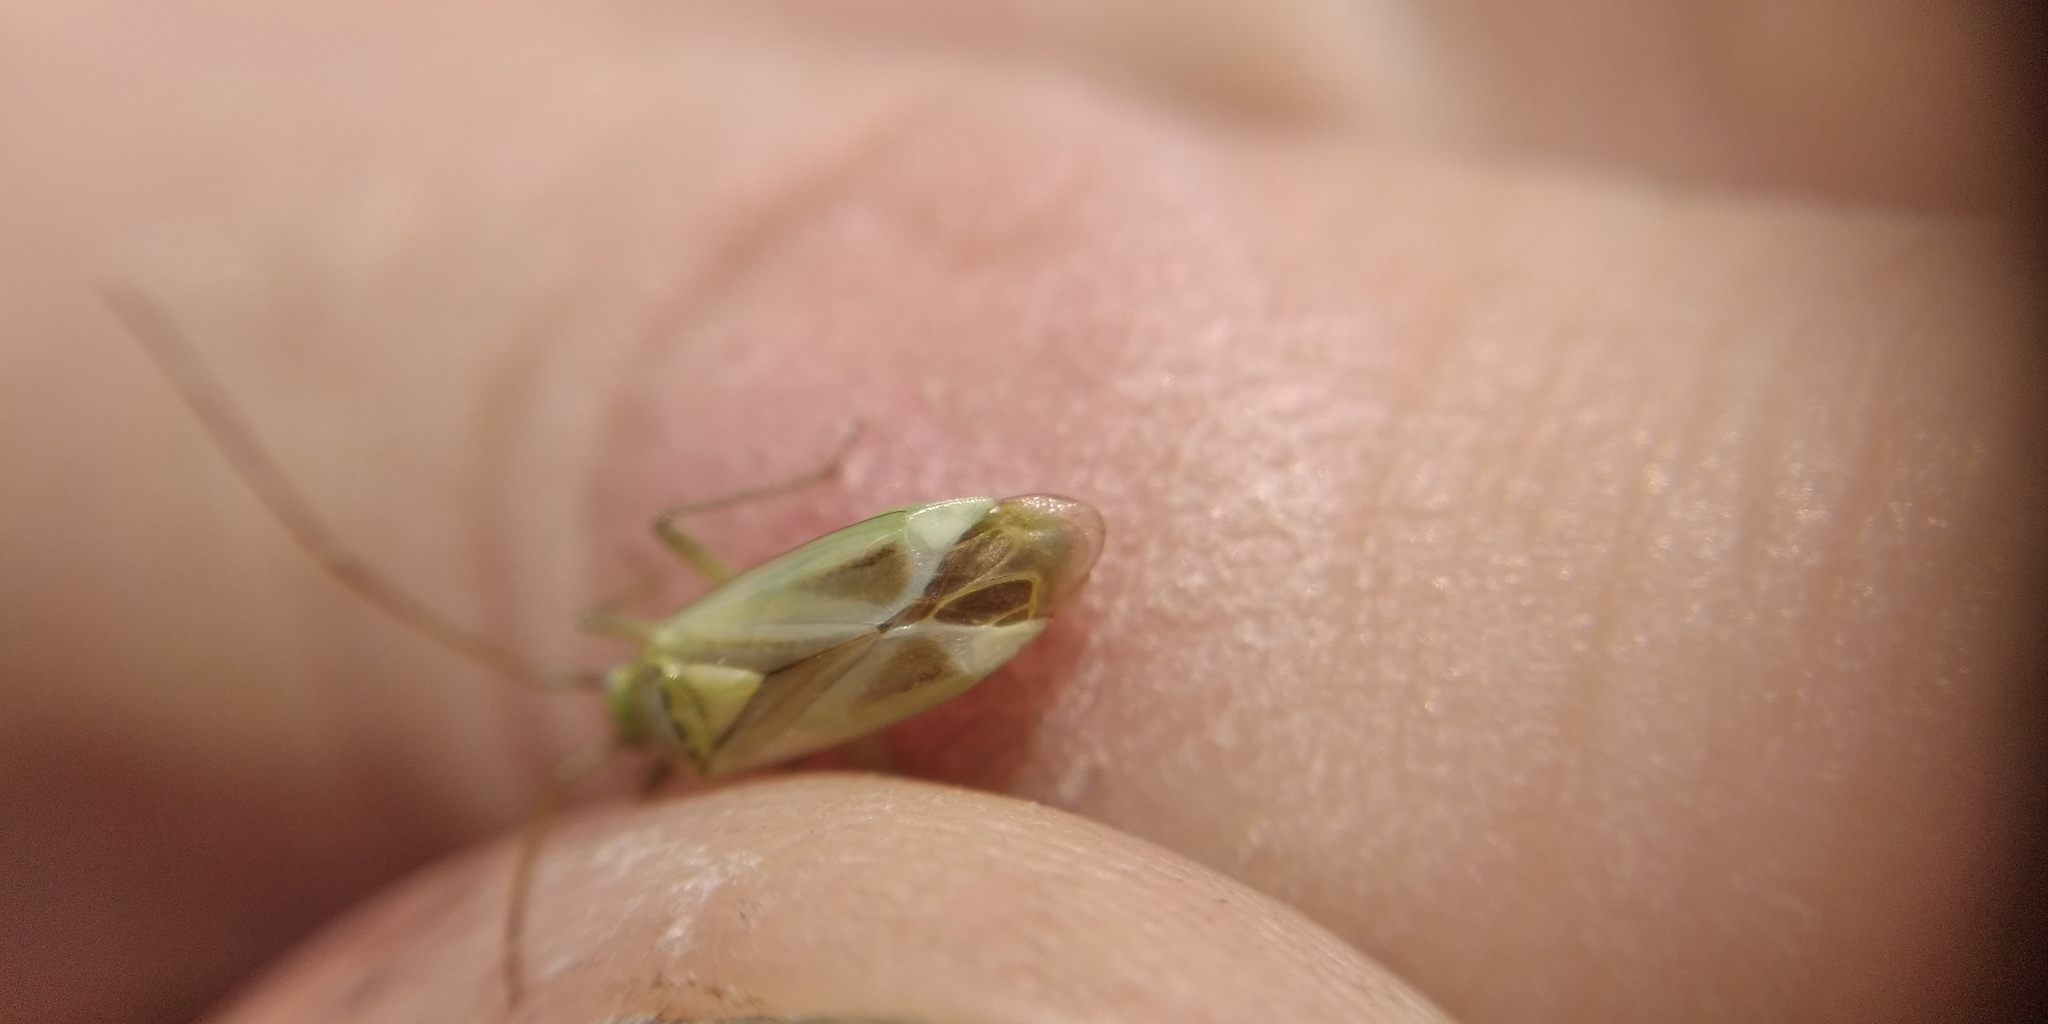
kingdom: Animalia
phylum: Arthropoda
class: Insecta
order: Hemiptera
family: Miridae
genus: Adelphocoris
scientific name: Adelphocoris lineolatus
